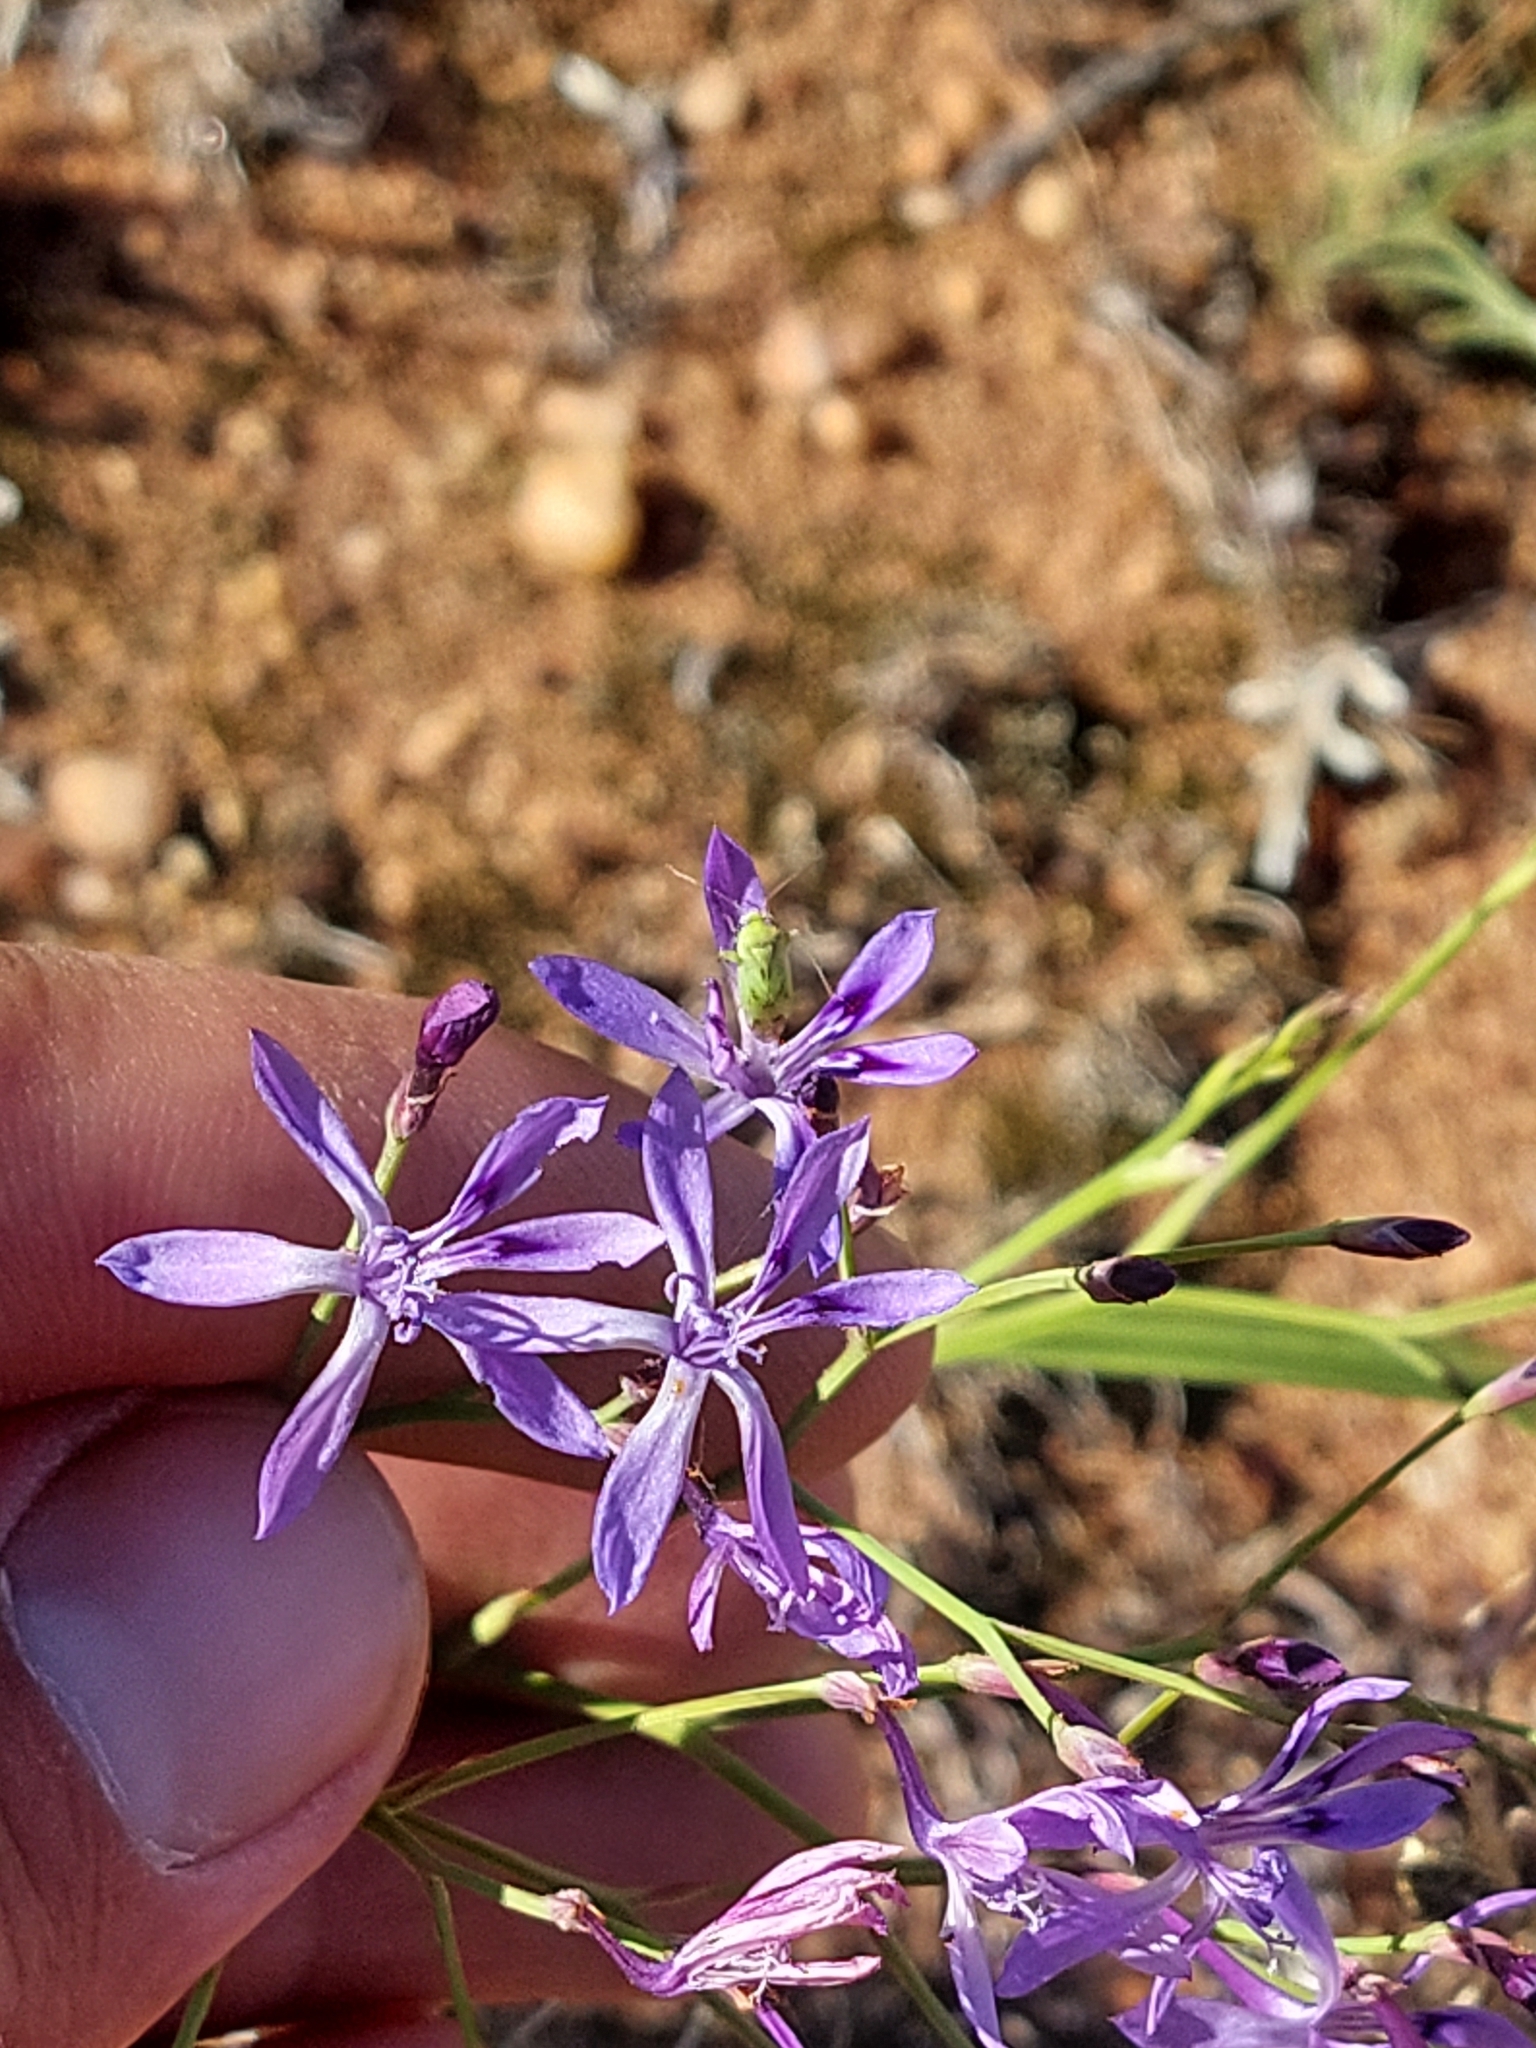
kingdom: Plantae
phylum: Tracheophyta
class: Liliopsida
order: Asparagales
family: Iridaceae
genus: Afrosolen
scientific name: Afrosolen sandersonii
